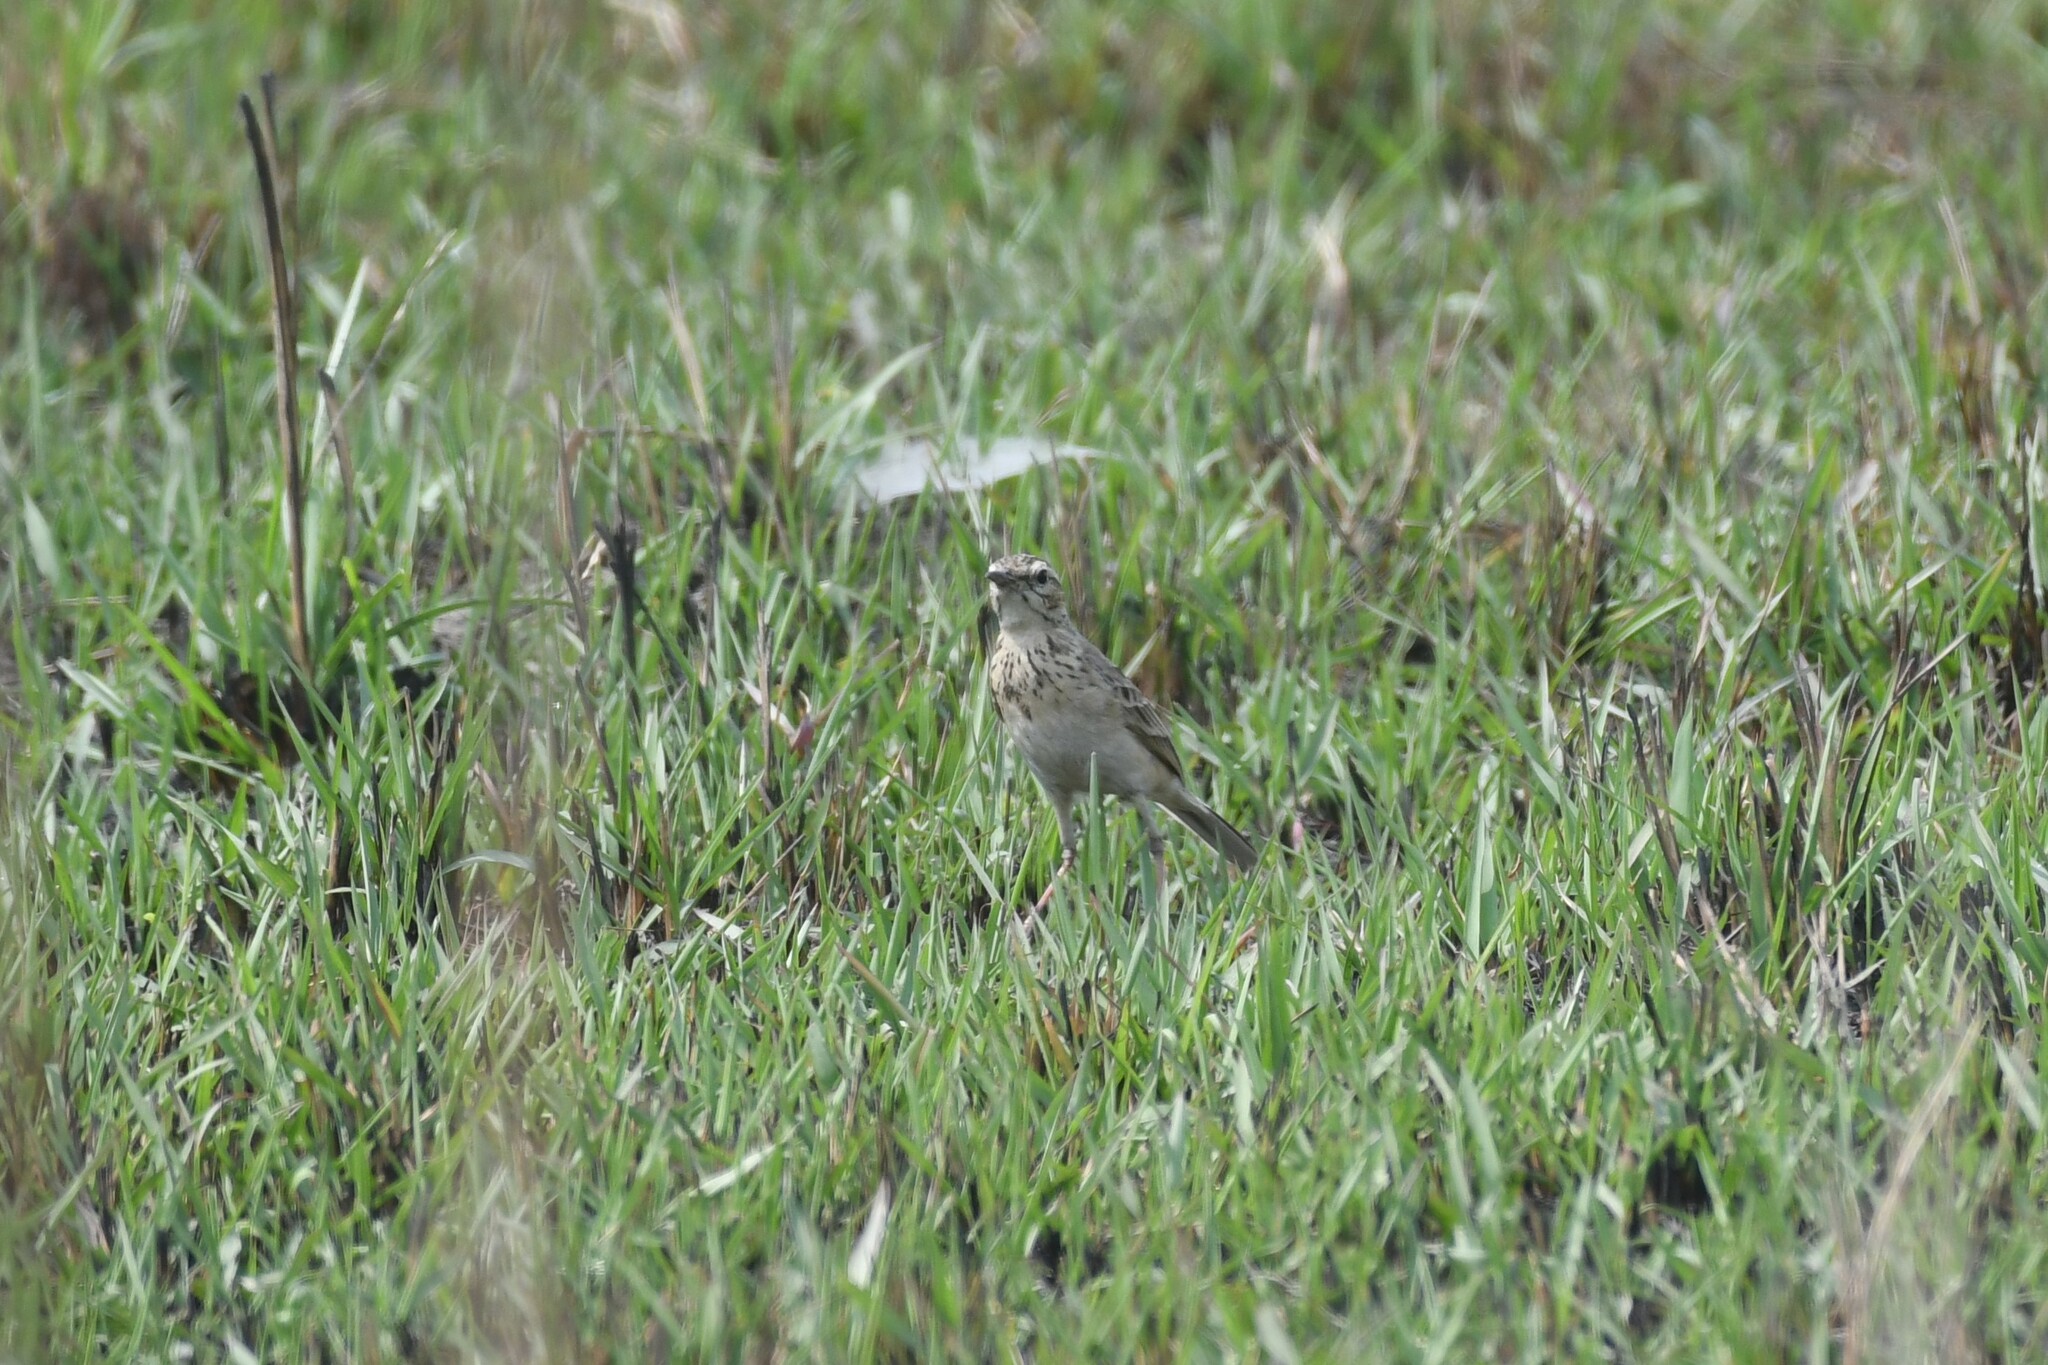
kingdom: Animalia
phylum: Chordata
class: Aves
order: Passeriformes
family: Motacillidae
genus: Anthus
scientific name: Anthus rufulus
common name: Paddyfield pipit
